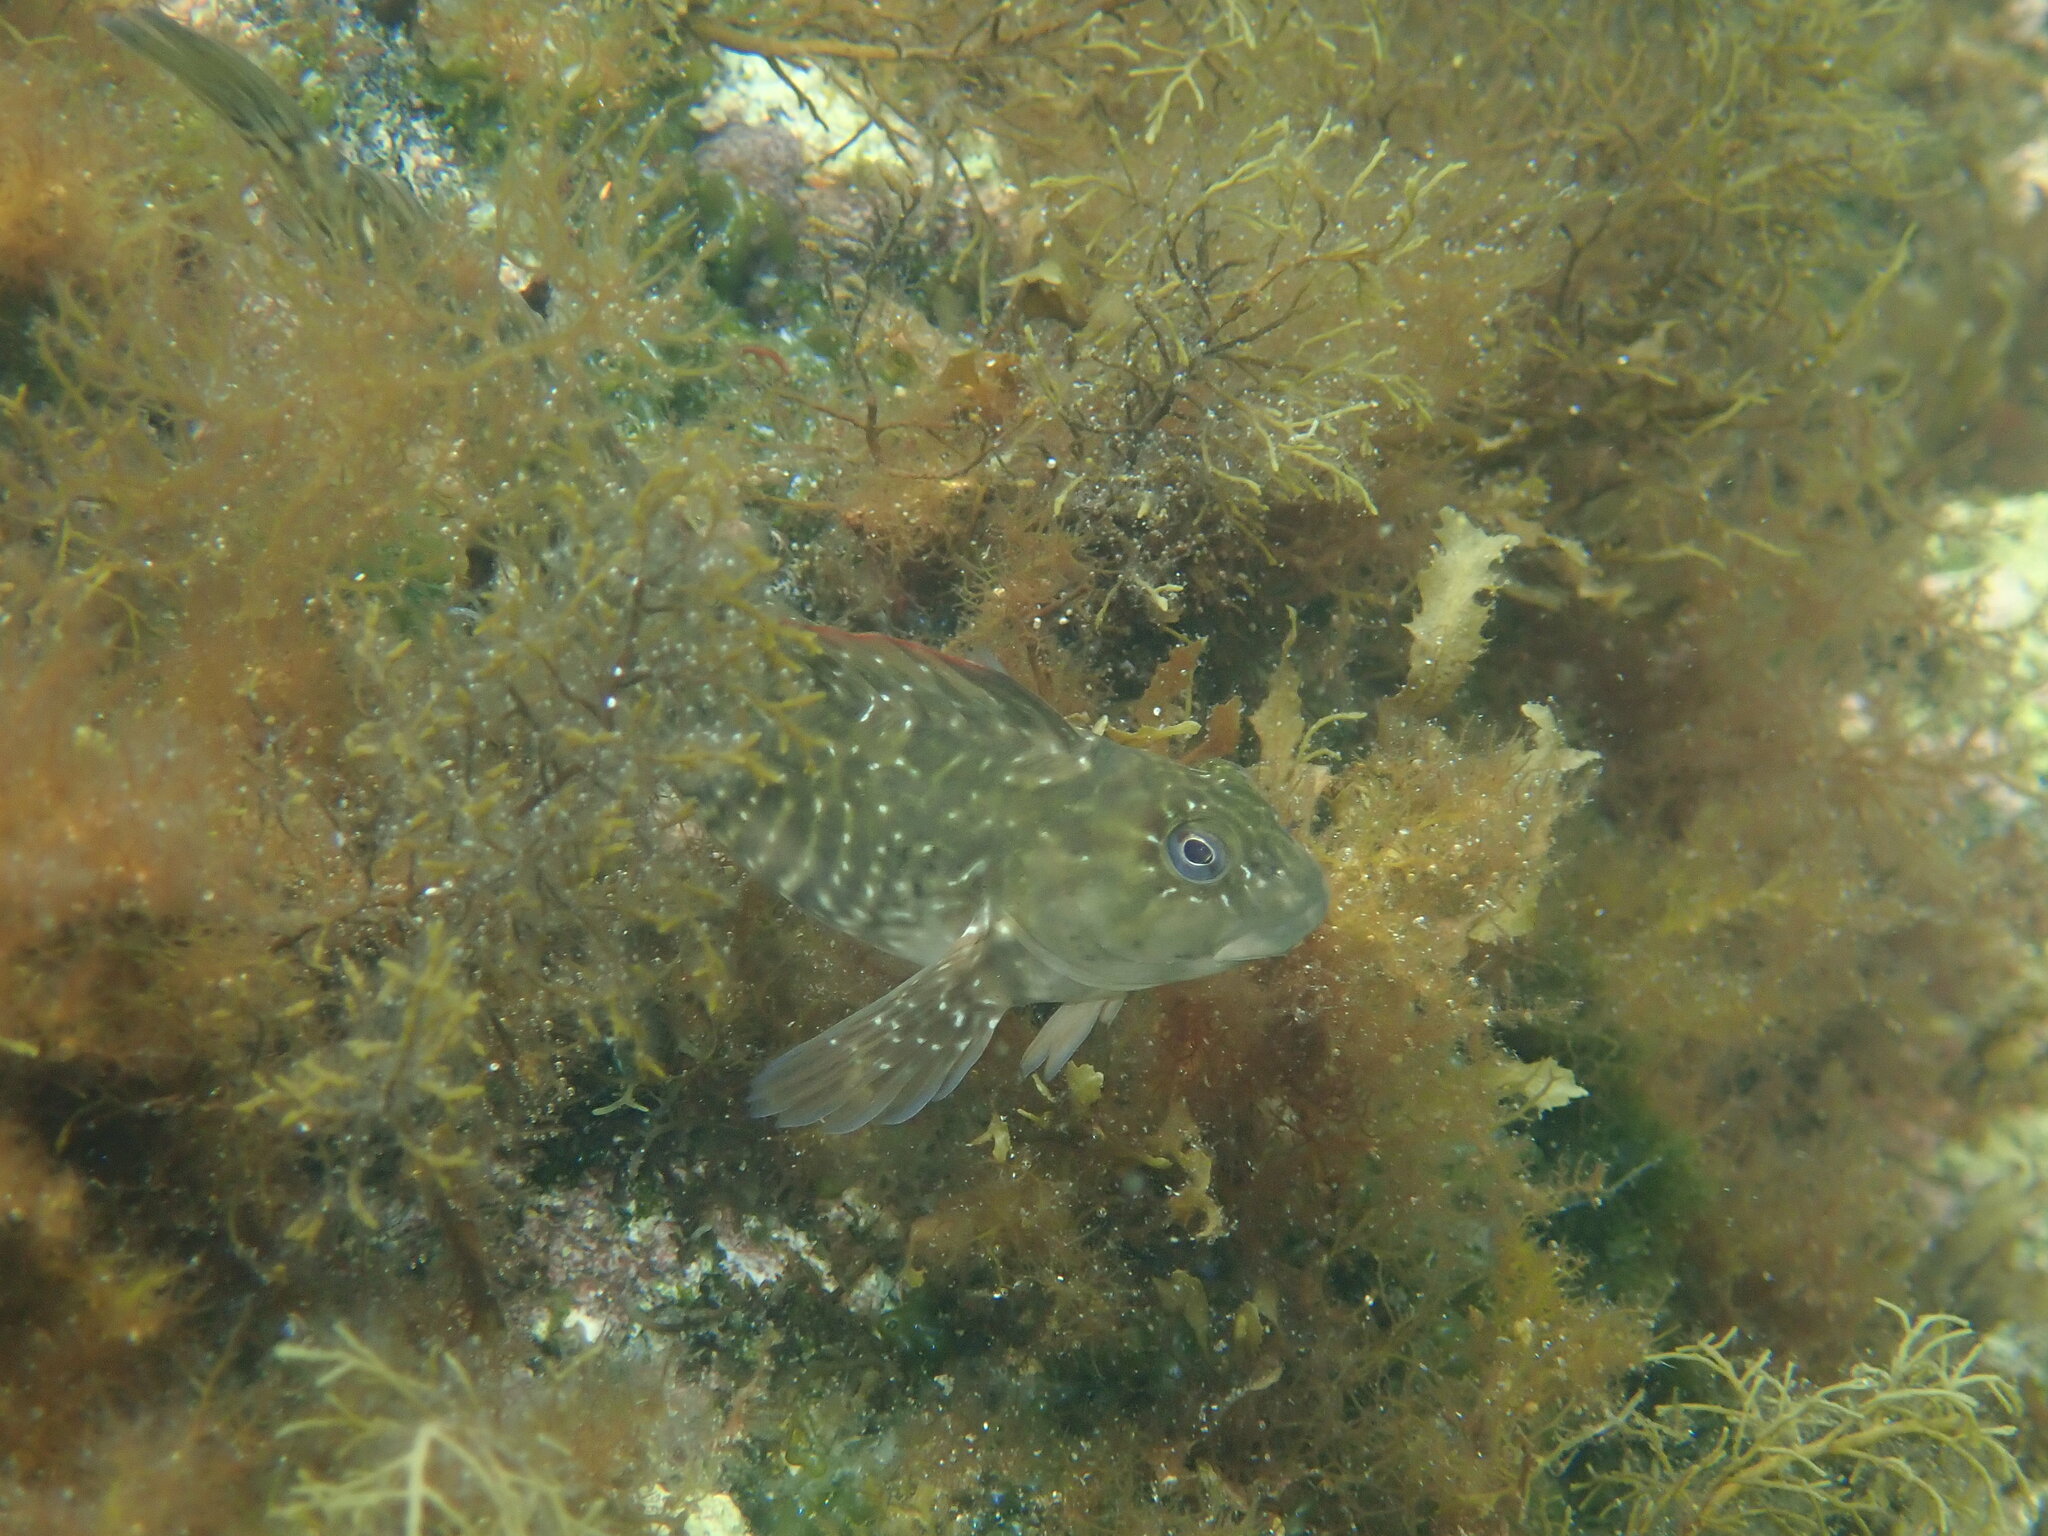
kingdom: Animalia
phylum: Chordata
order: Perciformes
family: Blenniidae
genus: Parablennius
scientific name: Parablennius parvicornis
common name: Rock-pool blenny
